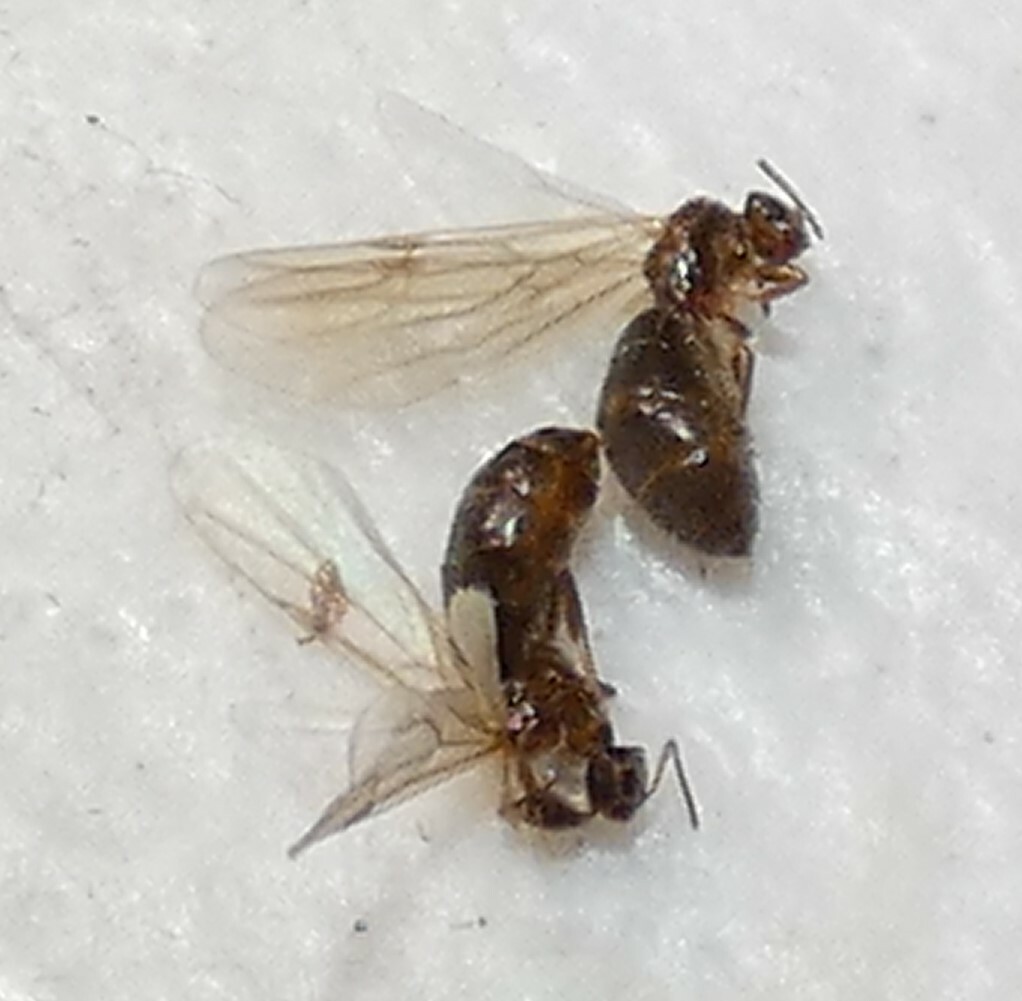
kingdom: Animalia
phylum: Arthropoda
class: Insecta
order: Hymenoptera
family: Formicidae
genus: Brachymyrmex
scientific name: Brachymyrmex patagonicus
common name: Dark rover ant
